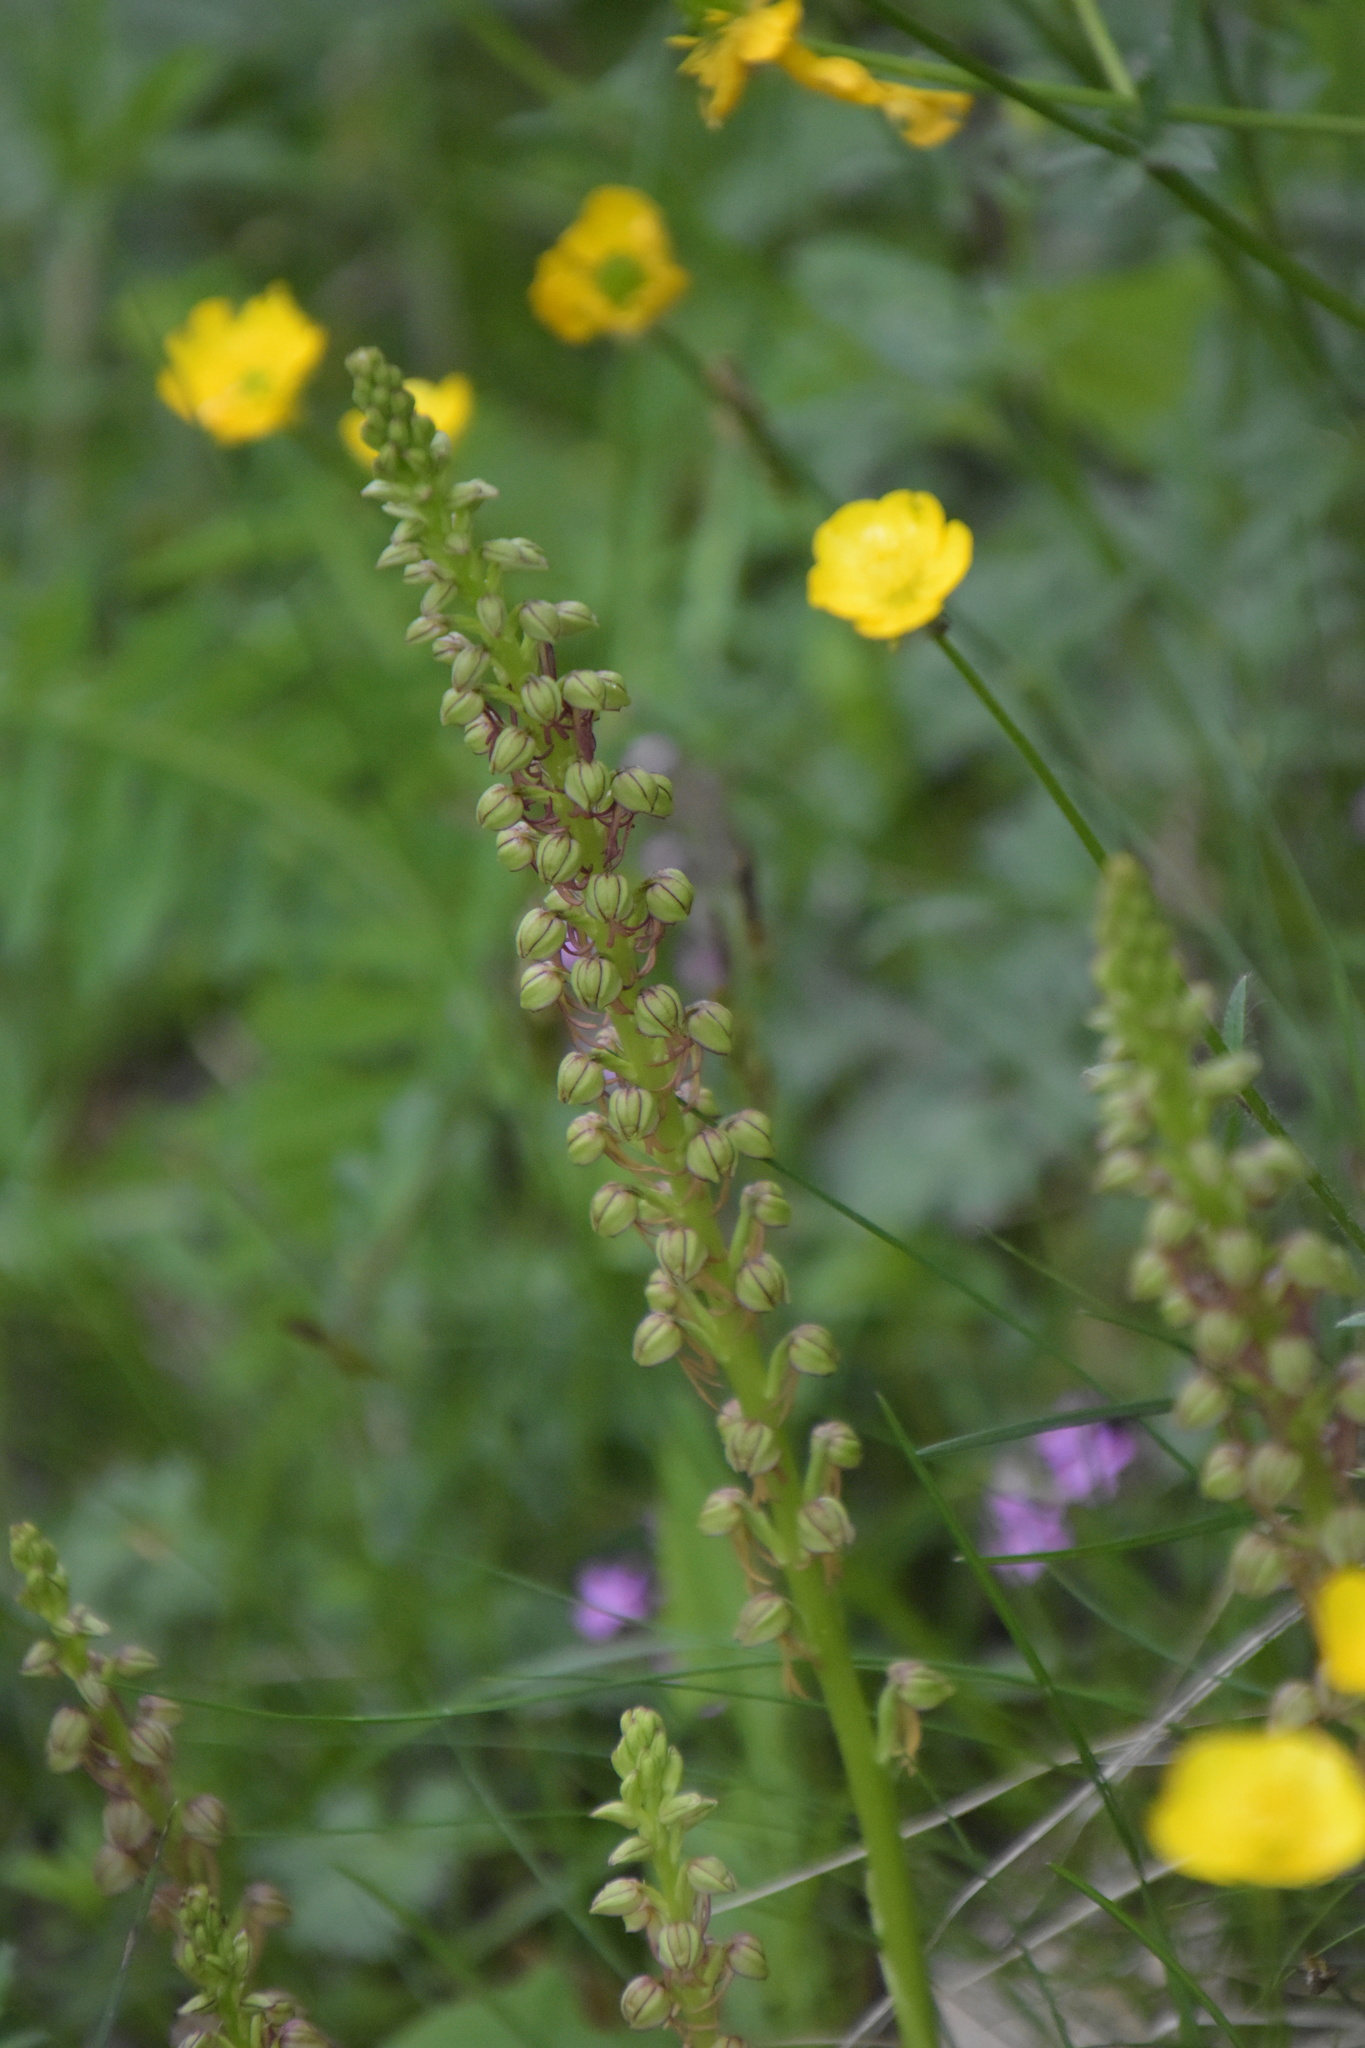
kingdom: Plantae
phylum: Tracheophyta
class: Liliopsida
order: Asparagales
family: Orchidaceae
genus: Orchis
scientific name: Orchis anthropophora
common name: Man orchid
